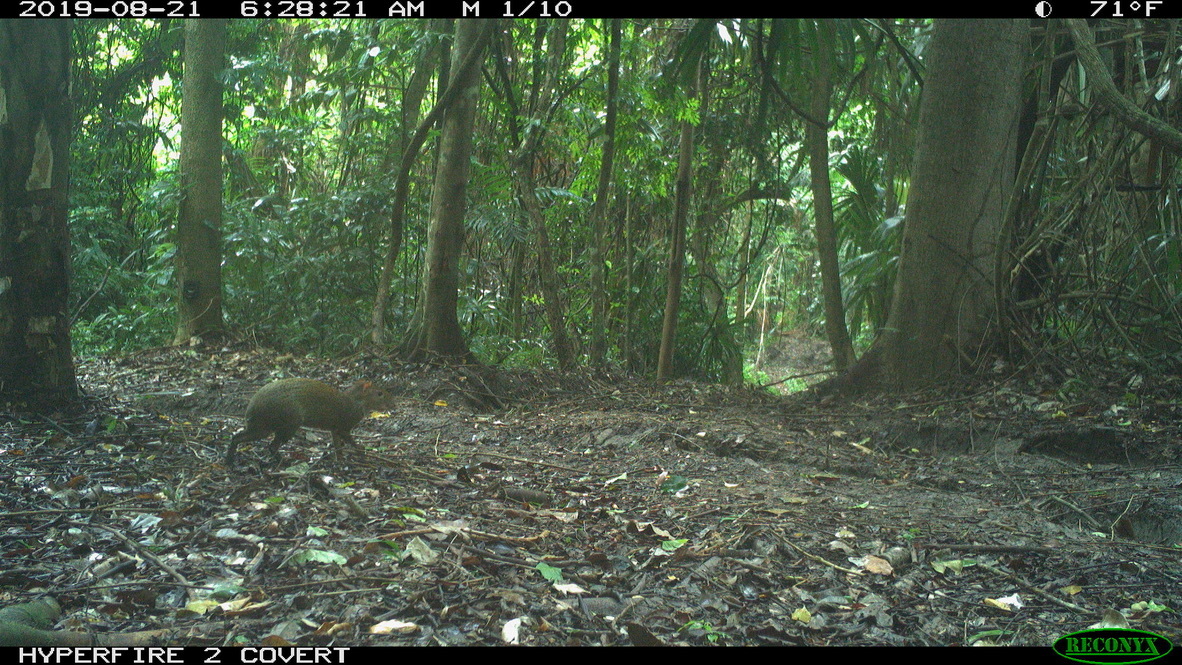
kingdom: Animalia
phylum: Chordata
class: Mammalia
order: Rodentia
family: Dasyproctidae
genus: Dasyprocta
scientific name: Dasyprocta punctata
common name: Central american agouti
